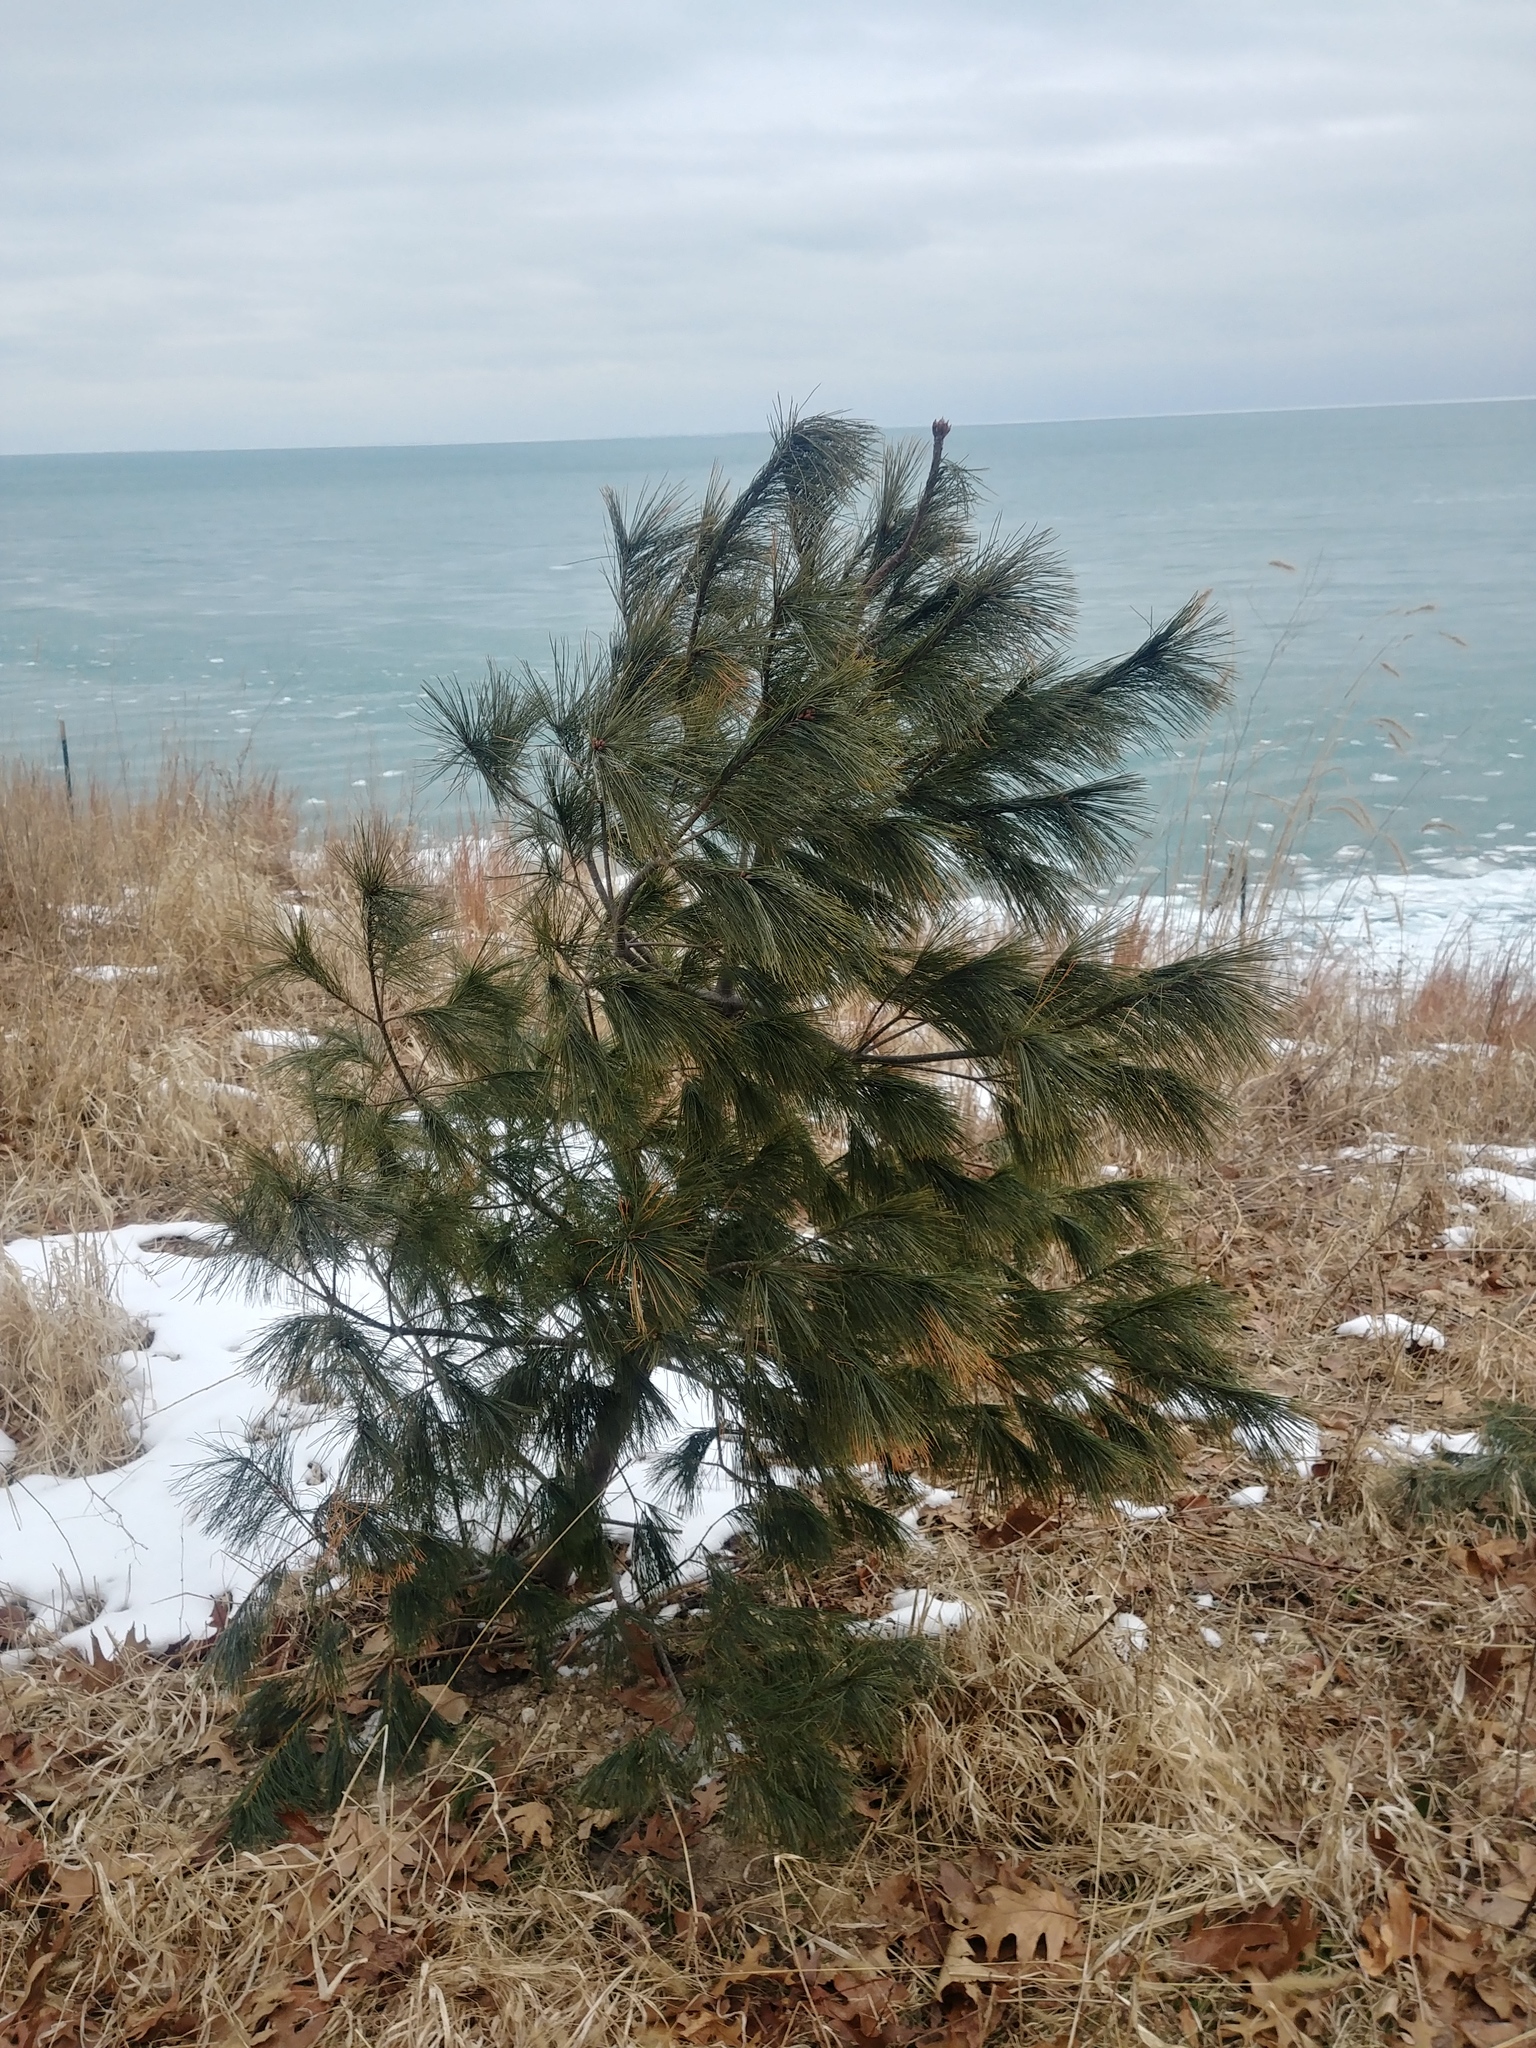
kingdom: Plantae
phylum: Tracheophyta
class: Pinopsida
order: Pinales
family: Pinaceae
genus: Pinus
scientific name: Pinus strobus
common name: Weymouth pine
